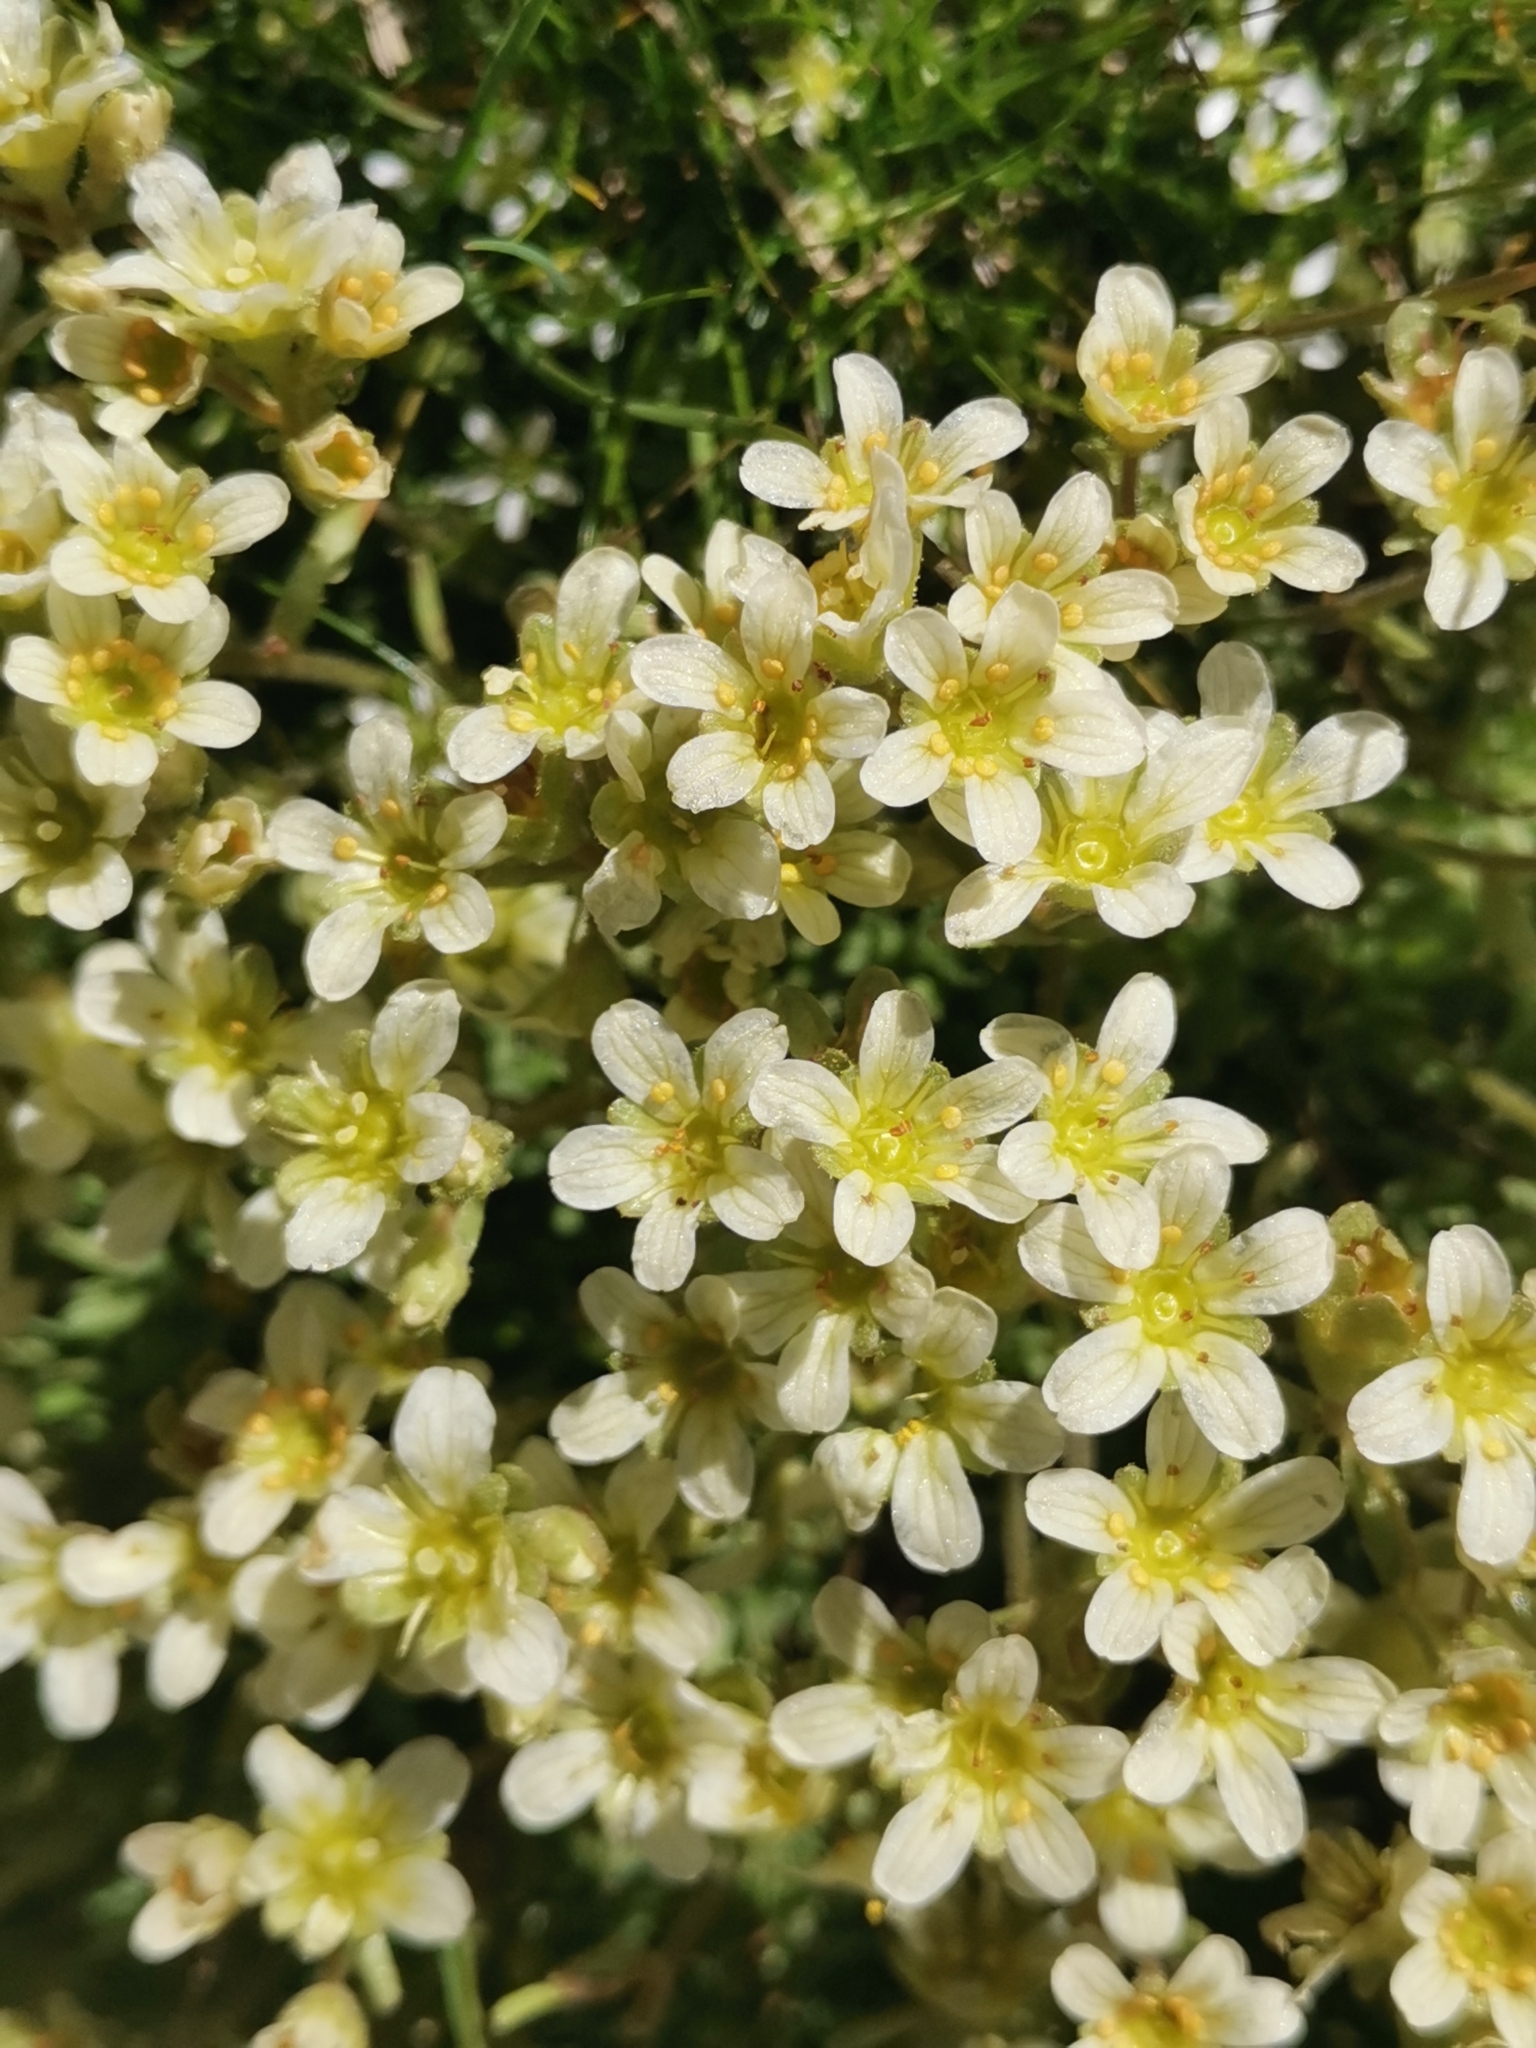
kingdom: Plantae
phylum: Tracheophyta
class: Magnoliopsida
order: Saxifragales
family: Saxifragaceae
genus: Saxifraga
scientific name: Saxifraga exarata
